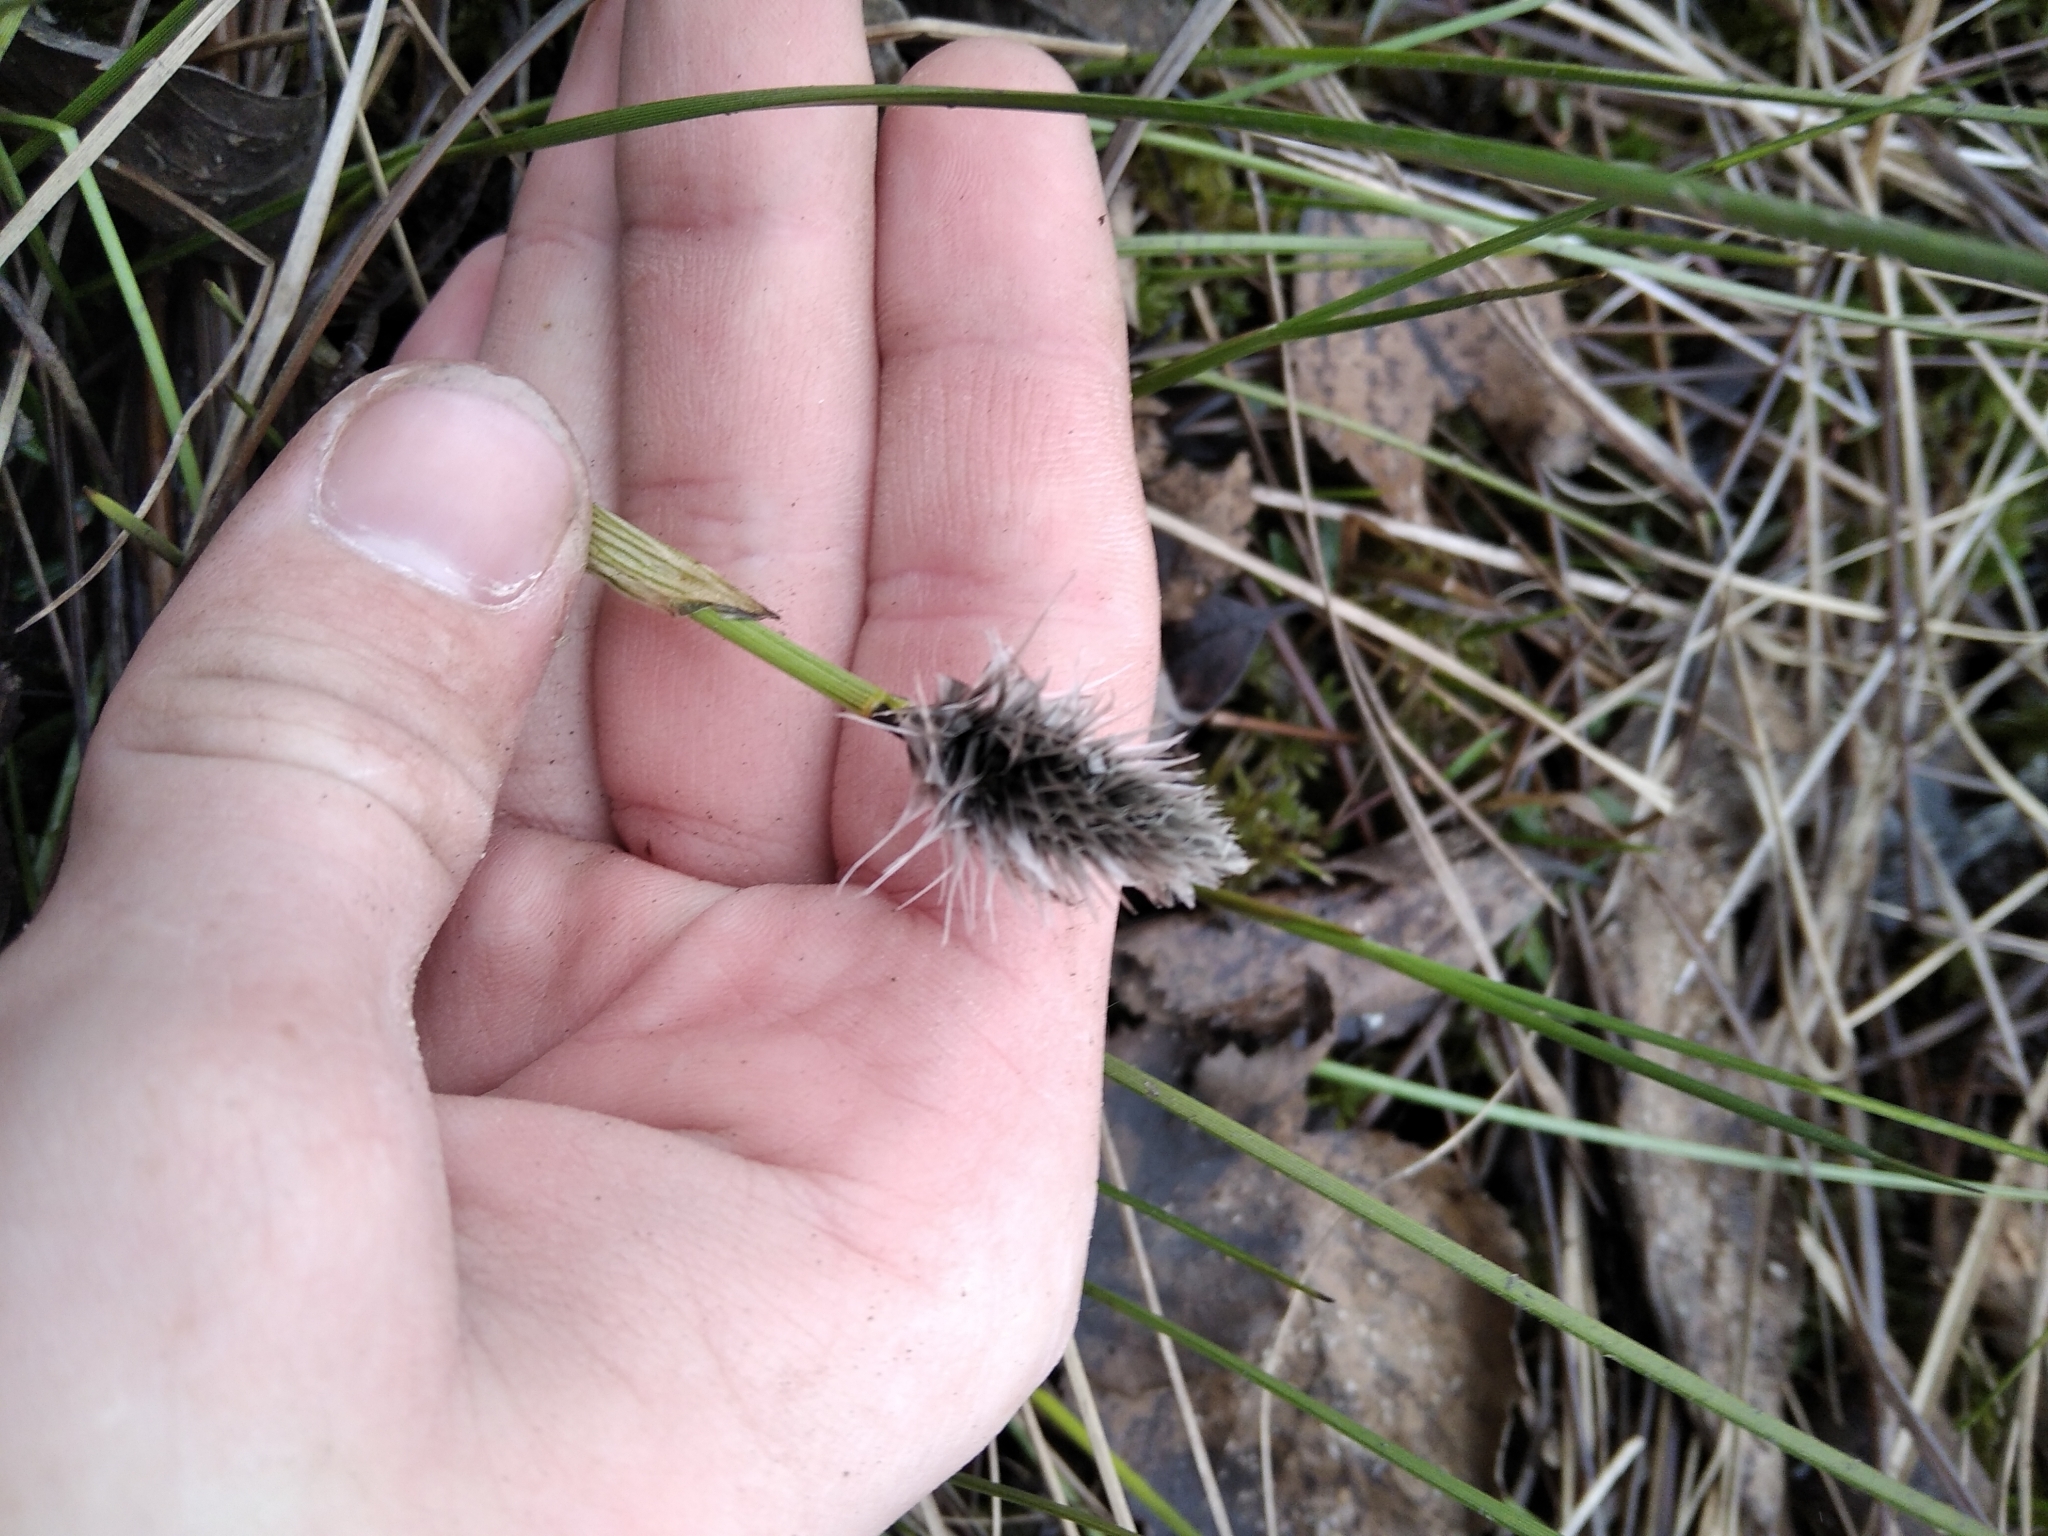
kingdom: Plantae
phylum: Tracheophyta
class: Liliopsida
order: Poales
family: Cyperaceae
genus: Eriophorum
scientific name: Eriophorum vaginatum
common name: Hare's-tail cottongrass
